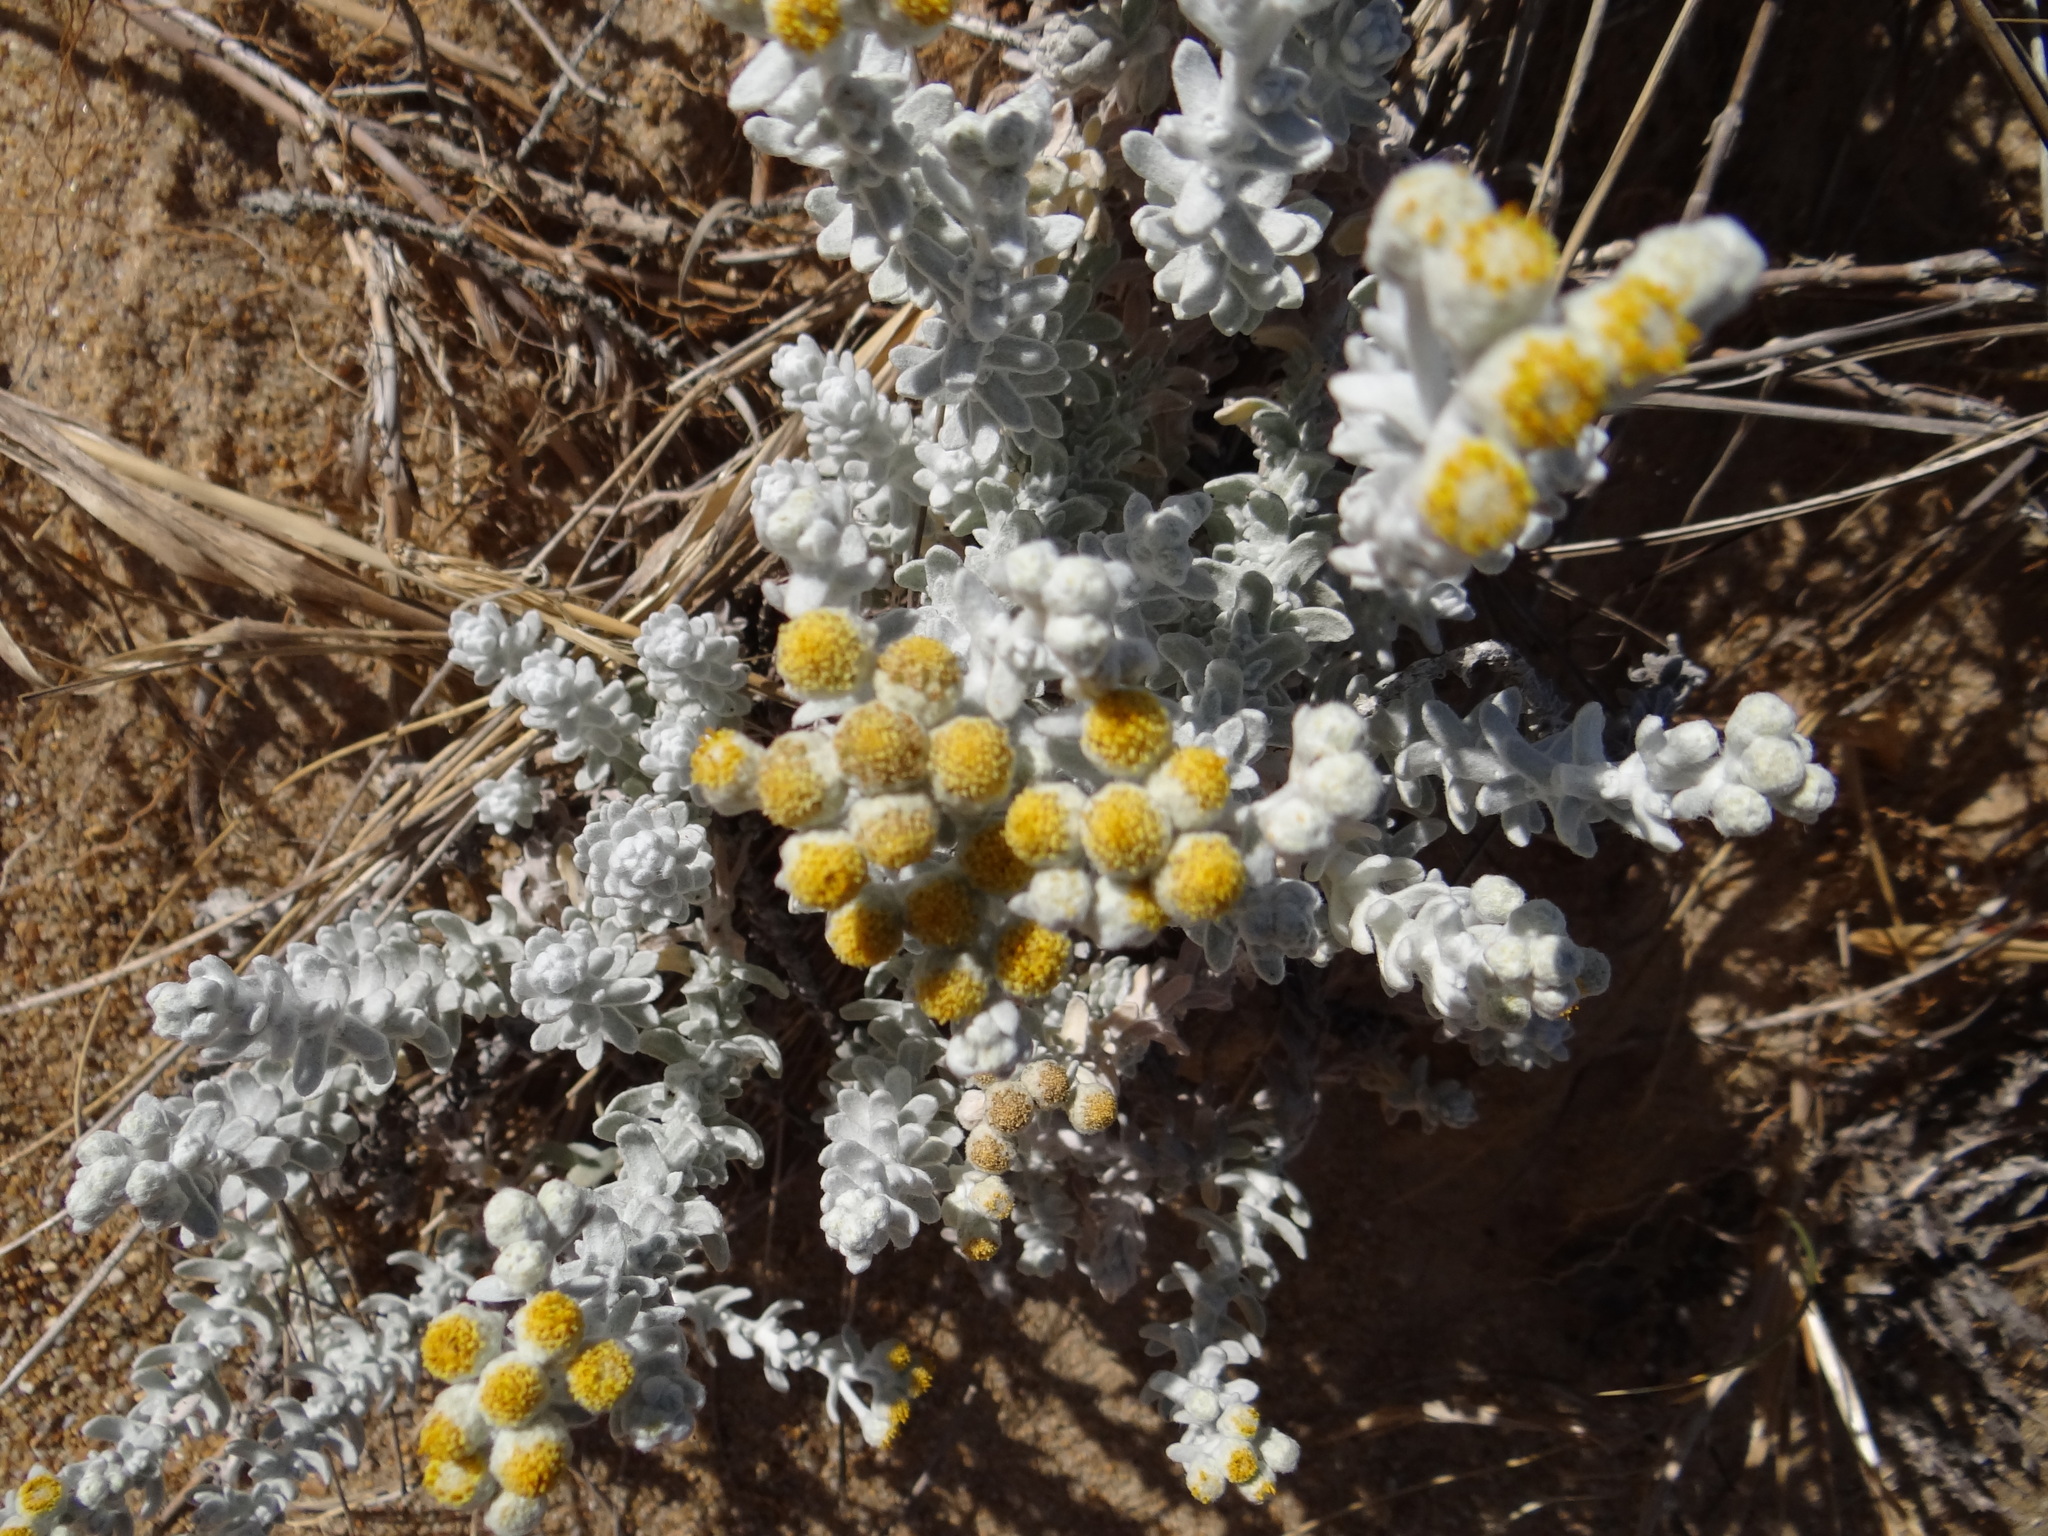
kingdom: Plantae
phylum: Tracheophyta
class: Magnoliopsida
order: Asterales
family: Asteraceae
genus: Achillea
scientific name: Achillea maritima
